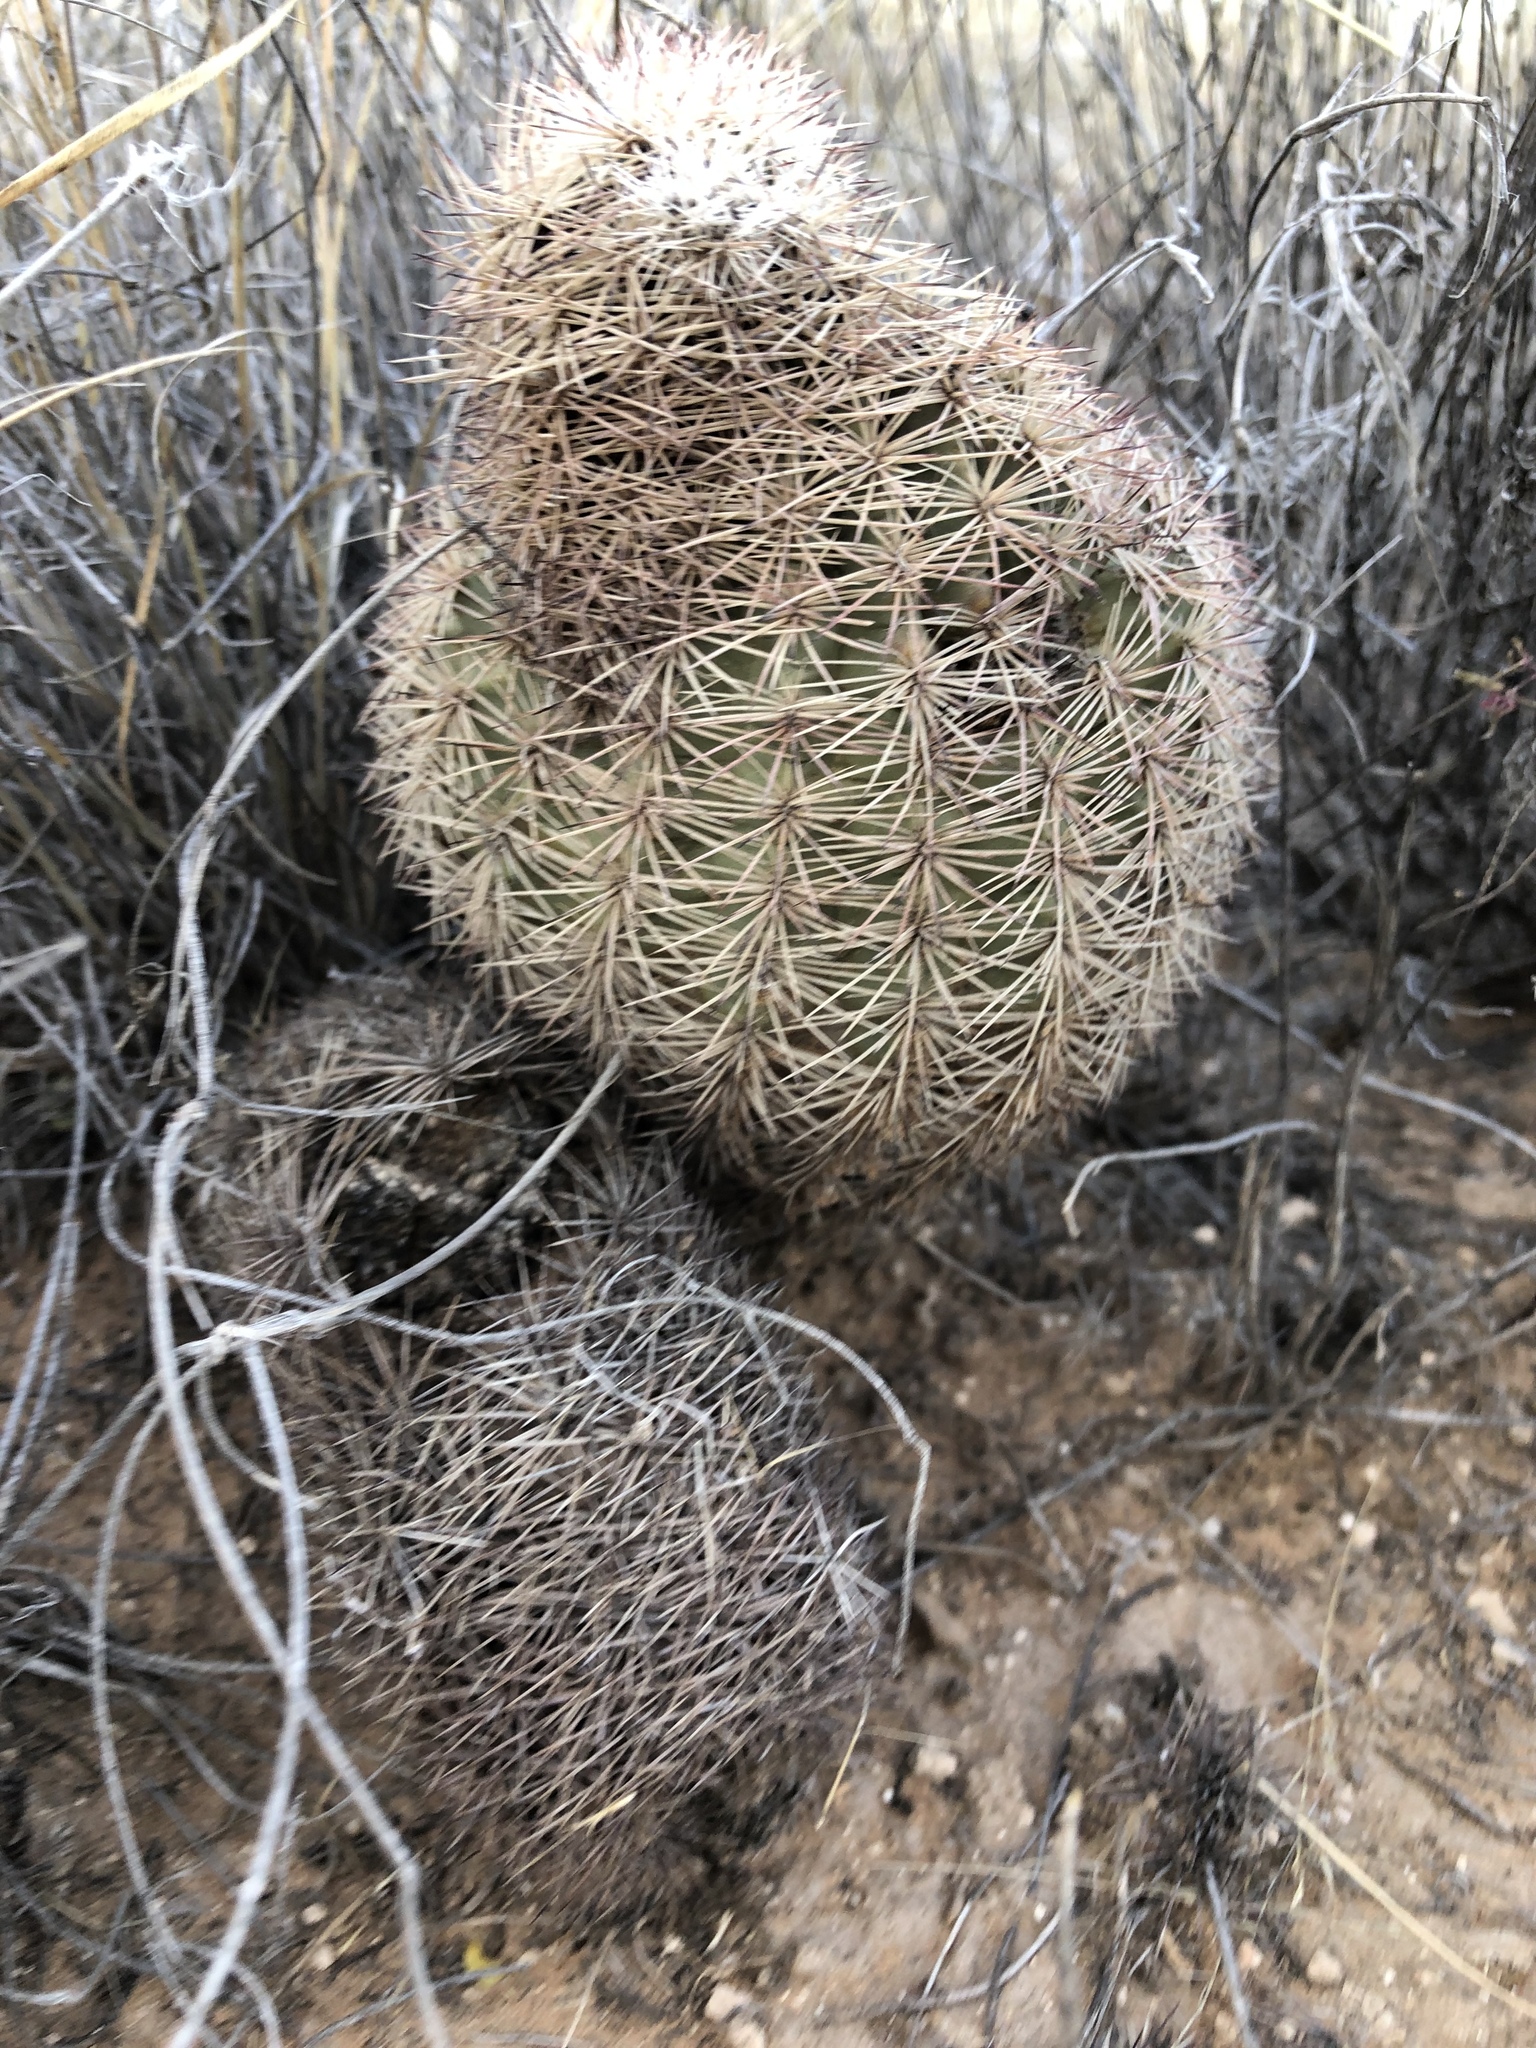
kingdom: Plantae
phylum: Tracheophyta
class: Magnoliopsida
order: Caryophyllales
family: Cactaceae
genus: Echinocereus
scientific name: Echinocereus dasyacanthus
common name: Spiny hedgehog cactus
